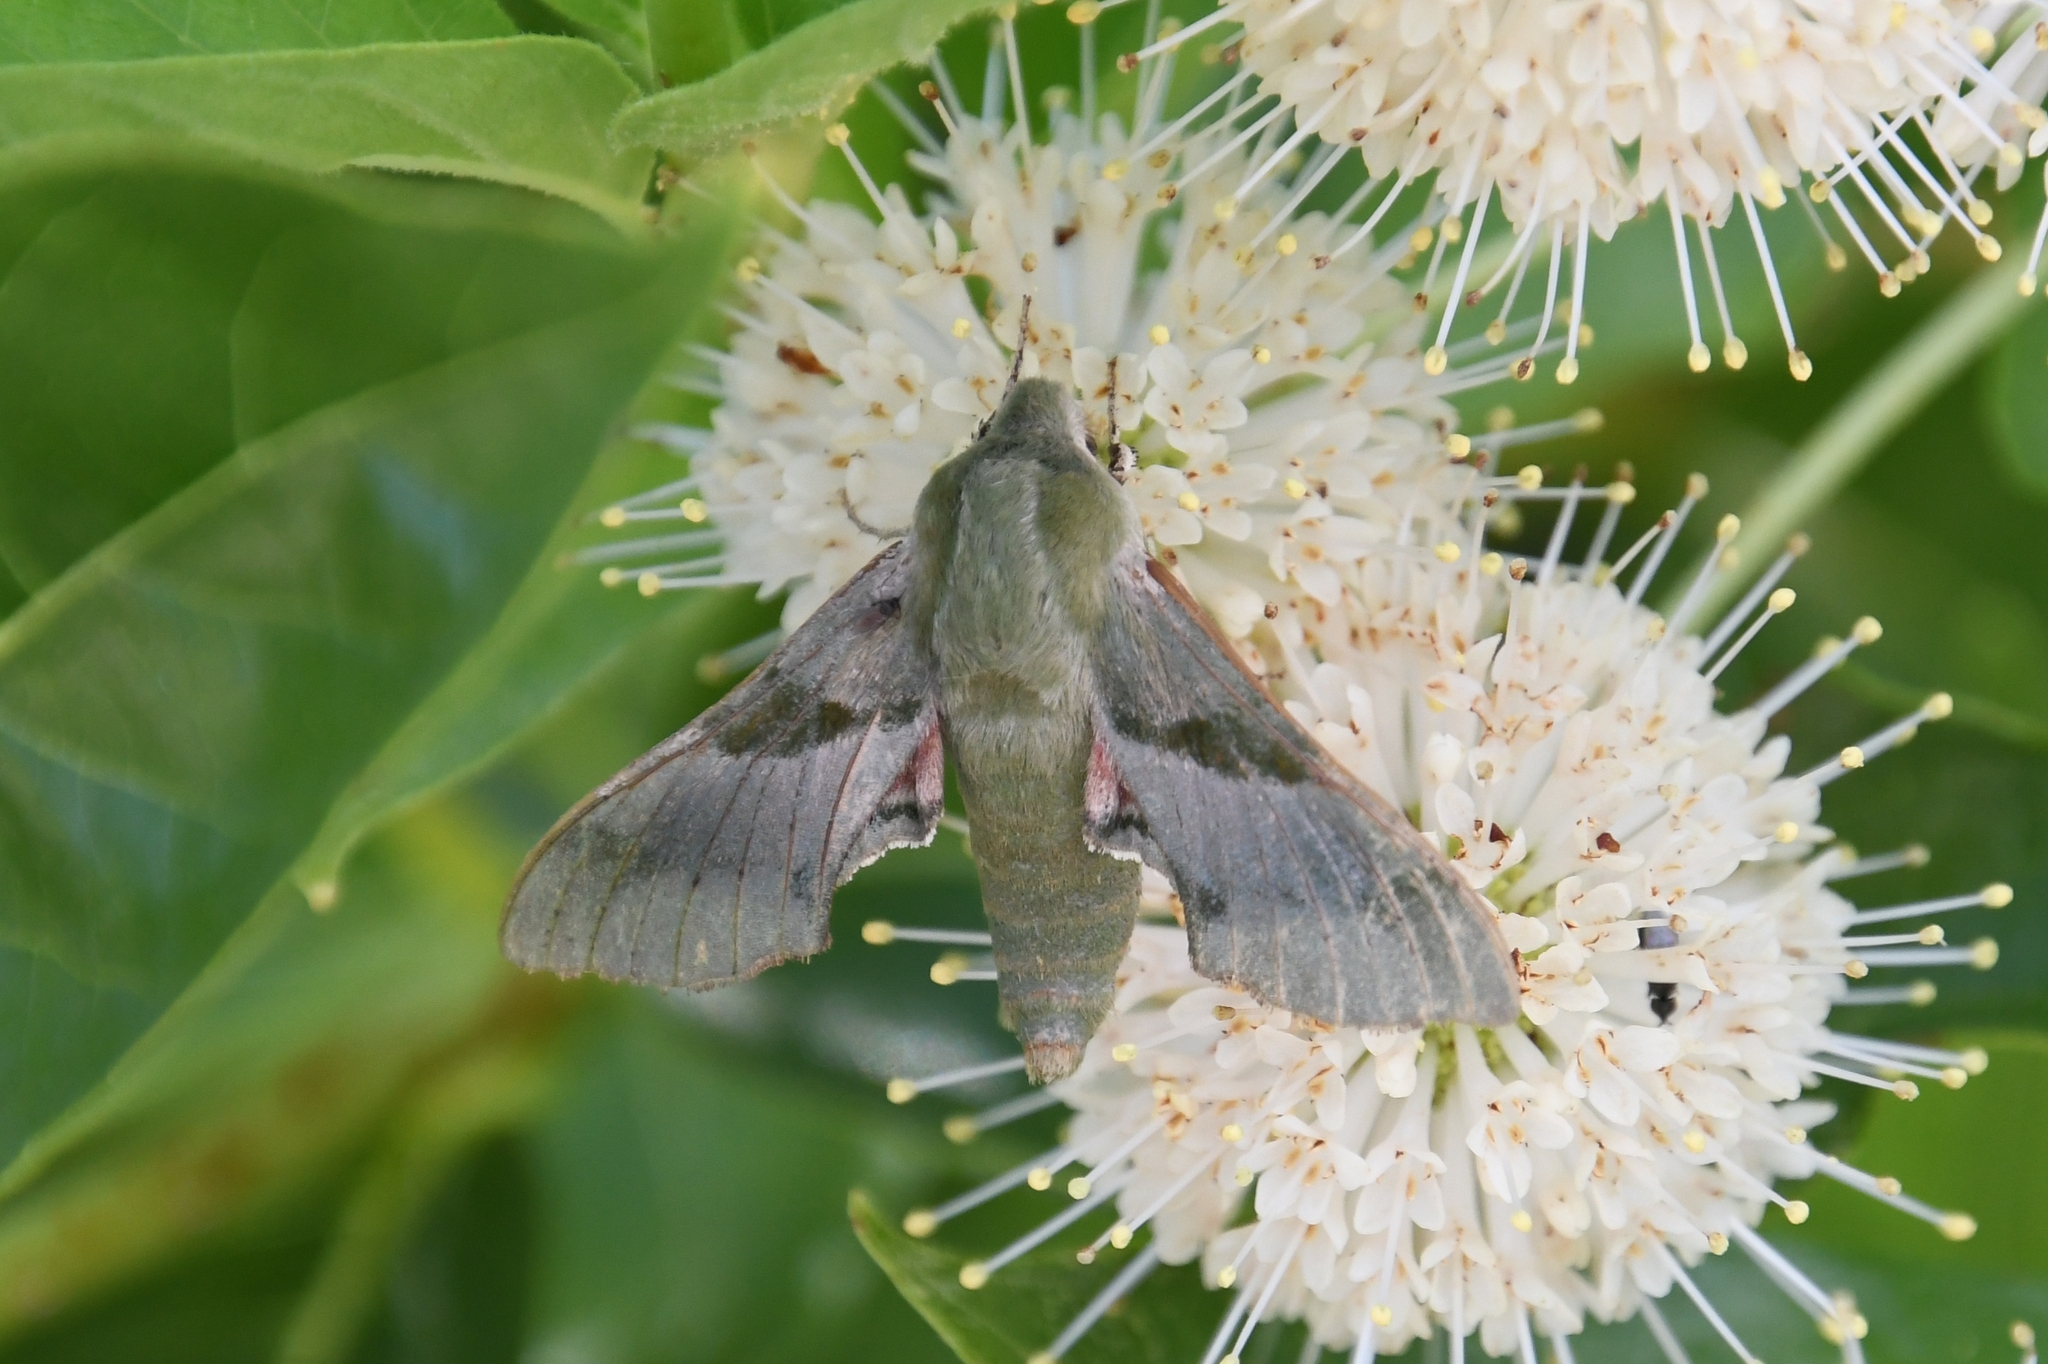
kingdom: Animalia
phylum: Arthropoda
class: Insecta
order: Lepidoptera
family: Sphingidae
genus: Proserpinus
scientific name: Proserpinus terlooii
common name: Terloo's sphinx
